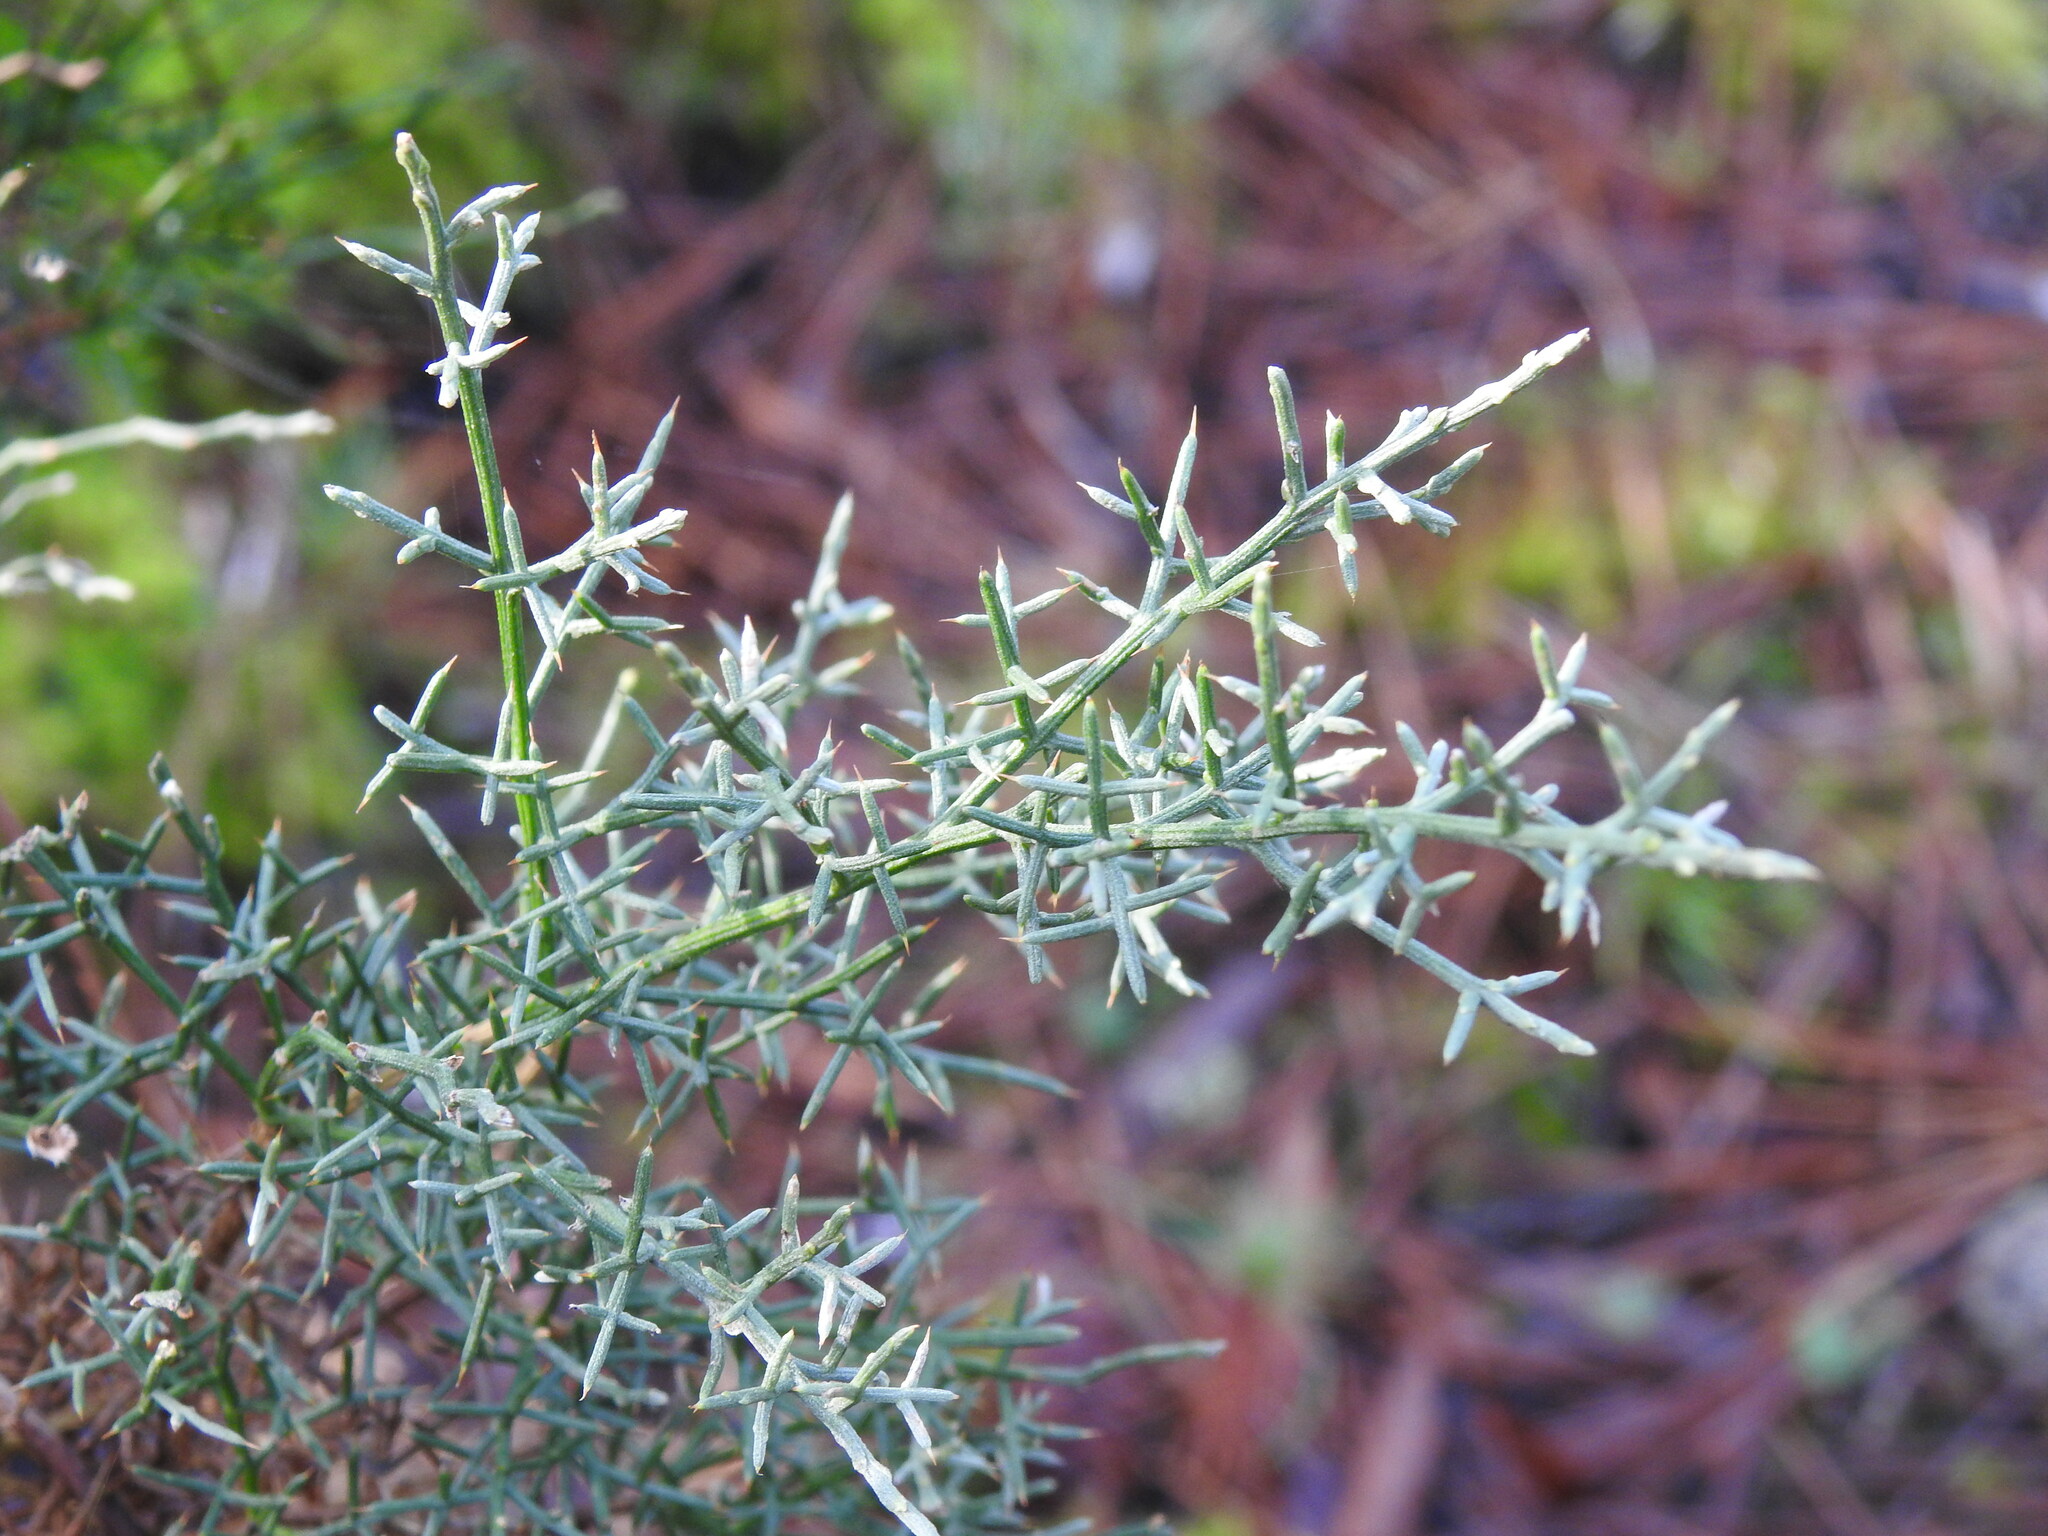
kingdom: Plantae
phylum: Tracheophyta
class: Magnoliopsida
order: Fabales
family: Fabaceae
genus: Stauracanthus
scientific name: Stauracanthus genistoides
